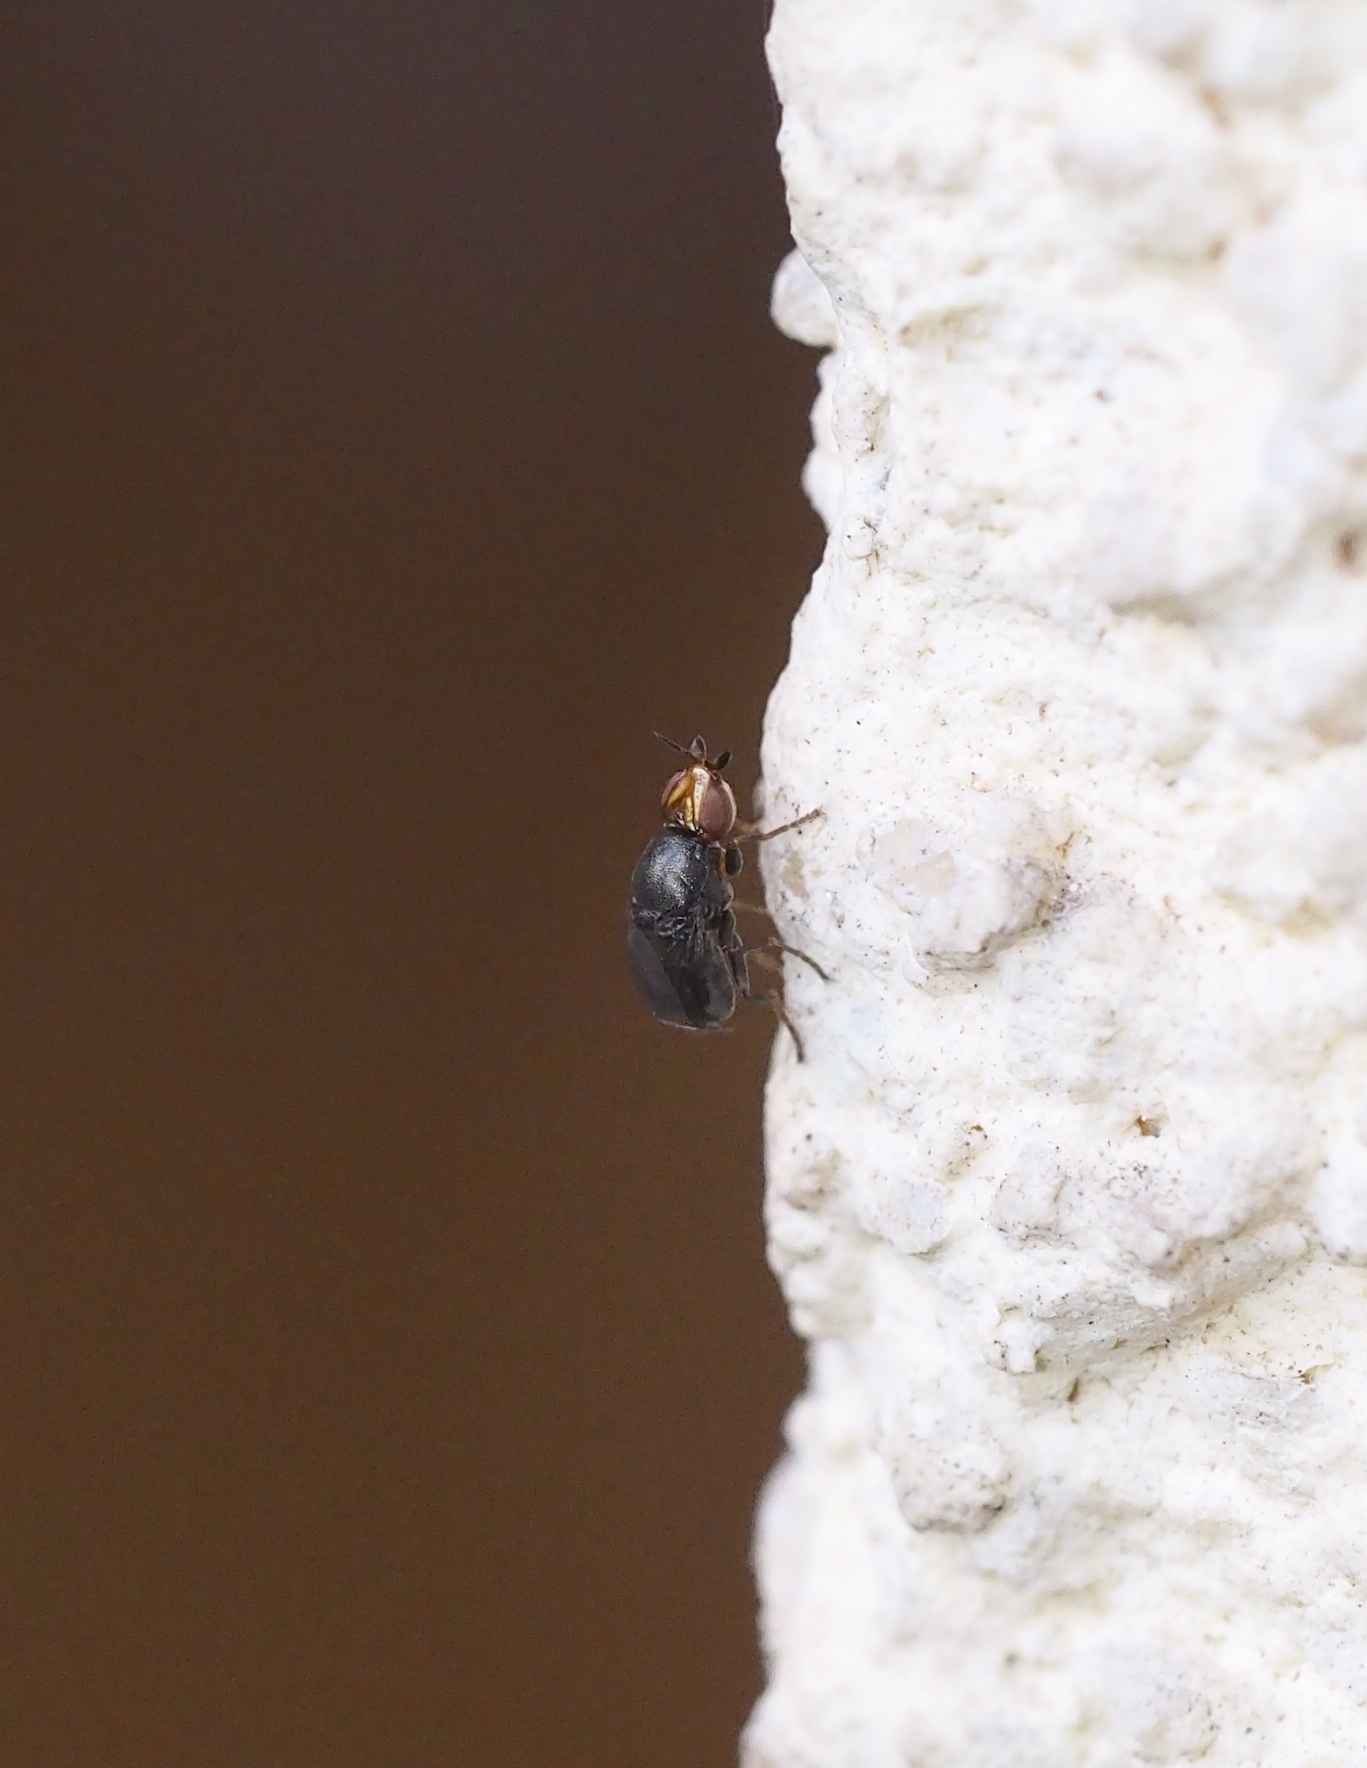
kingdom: Animalia
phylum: Arthropoda
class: Insecta
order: Diptera
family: Chloropidae
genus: Camarota
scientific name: Camarota curvipennis
